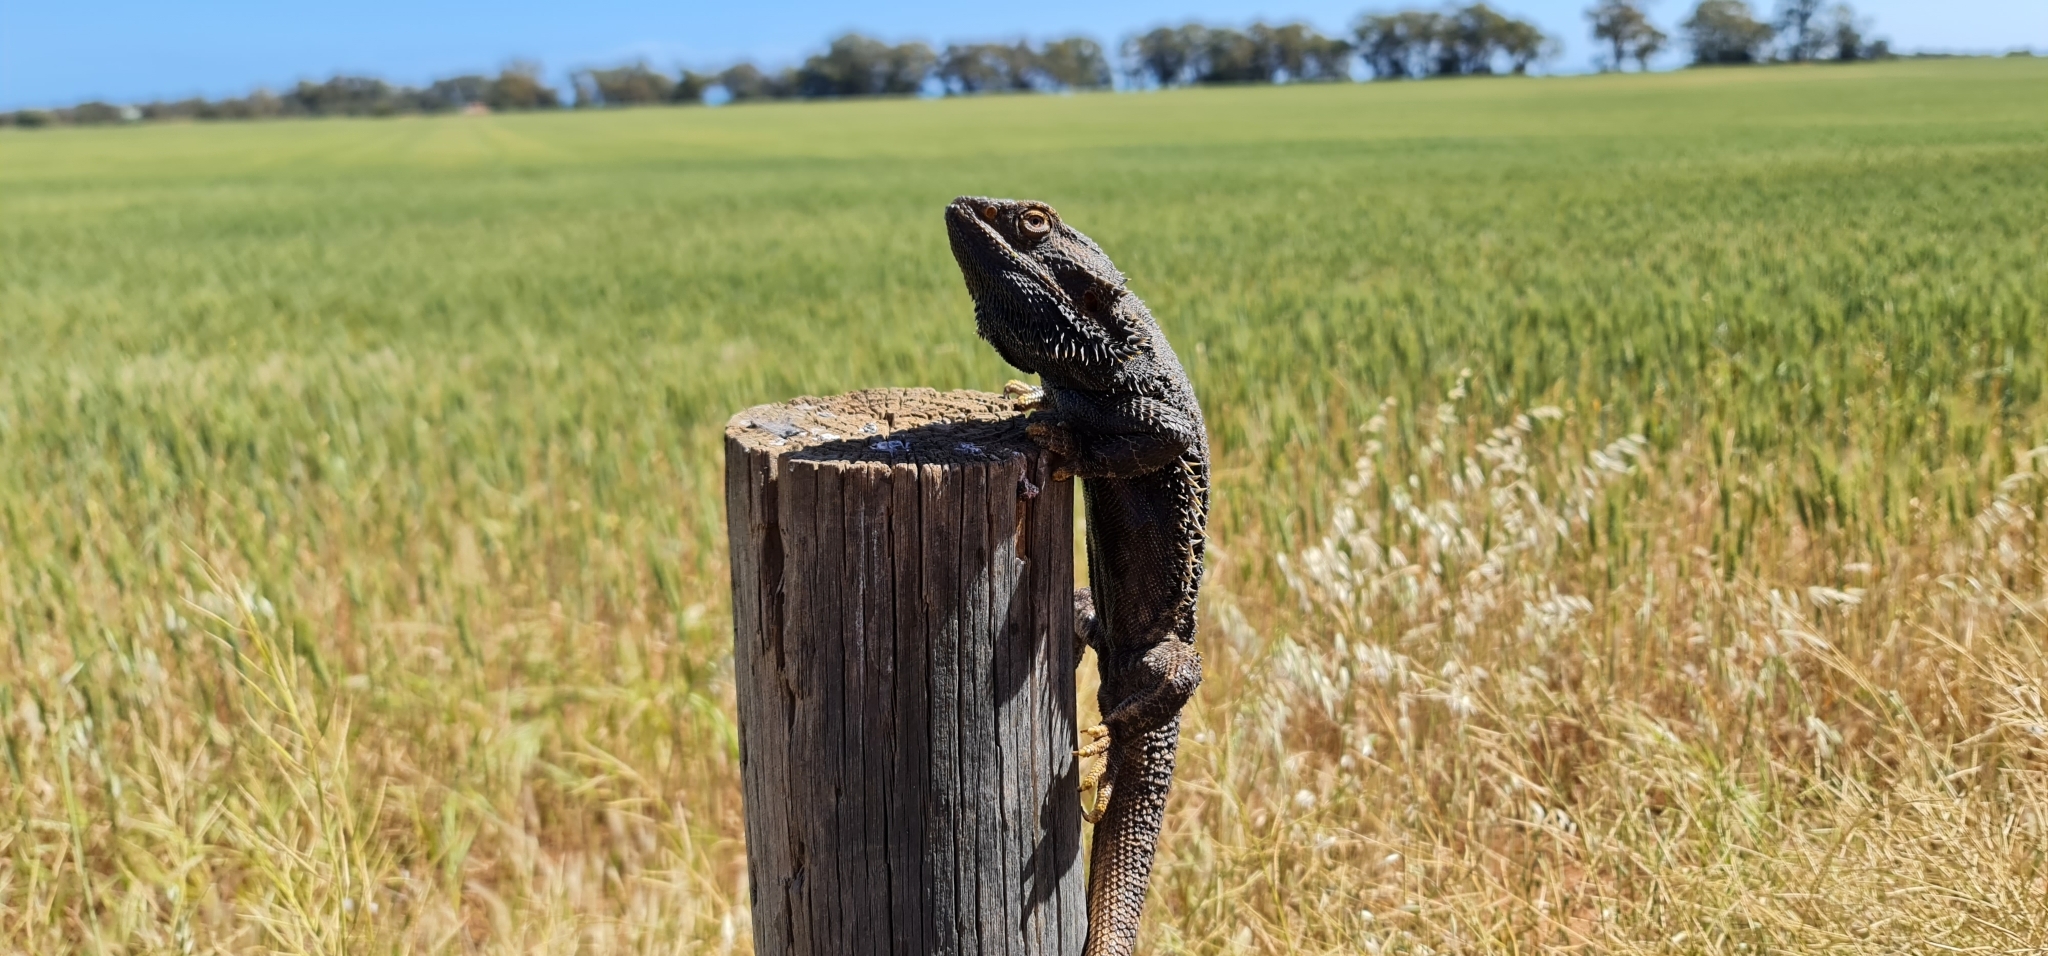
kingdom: Animalia
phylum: Chordata
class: Squamata
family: Agamidae
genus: Pogona
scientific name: Pogona vitticeps
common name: Central bearded dragon
